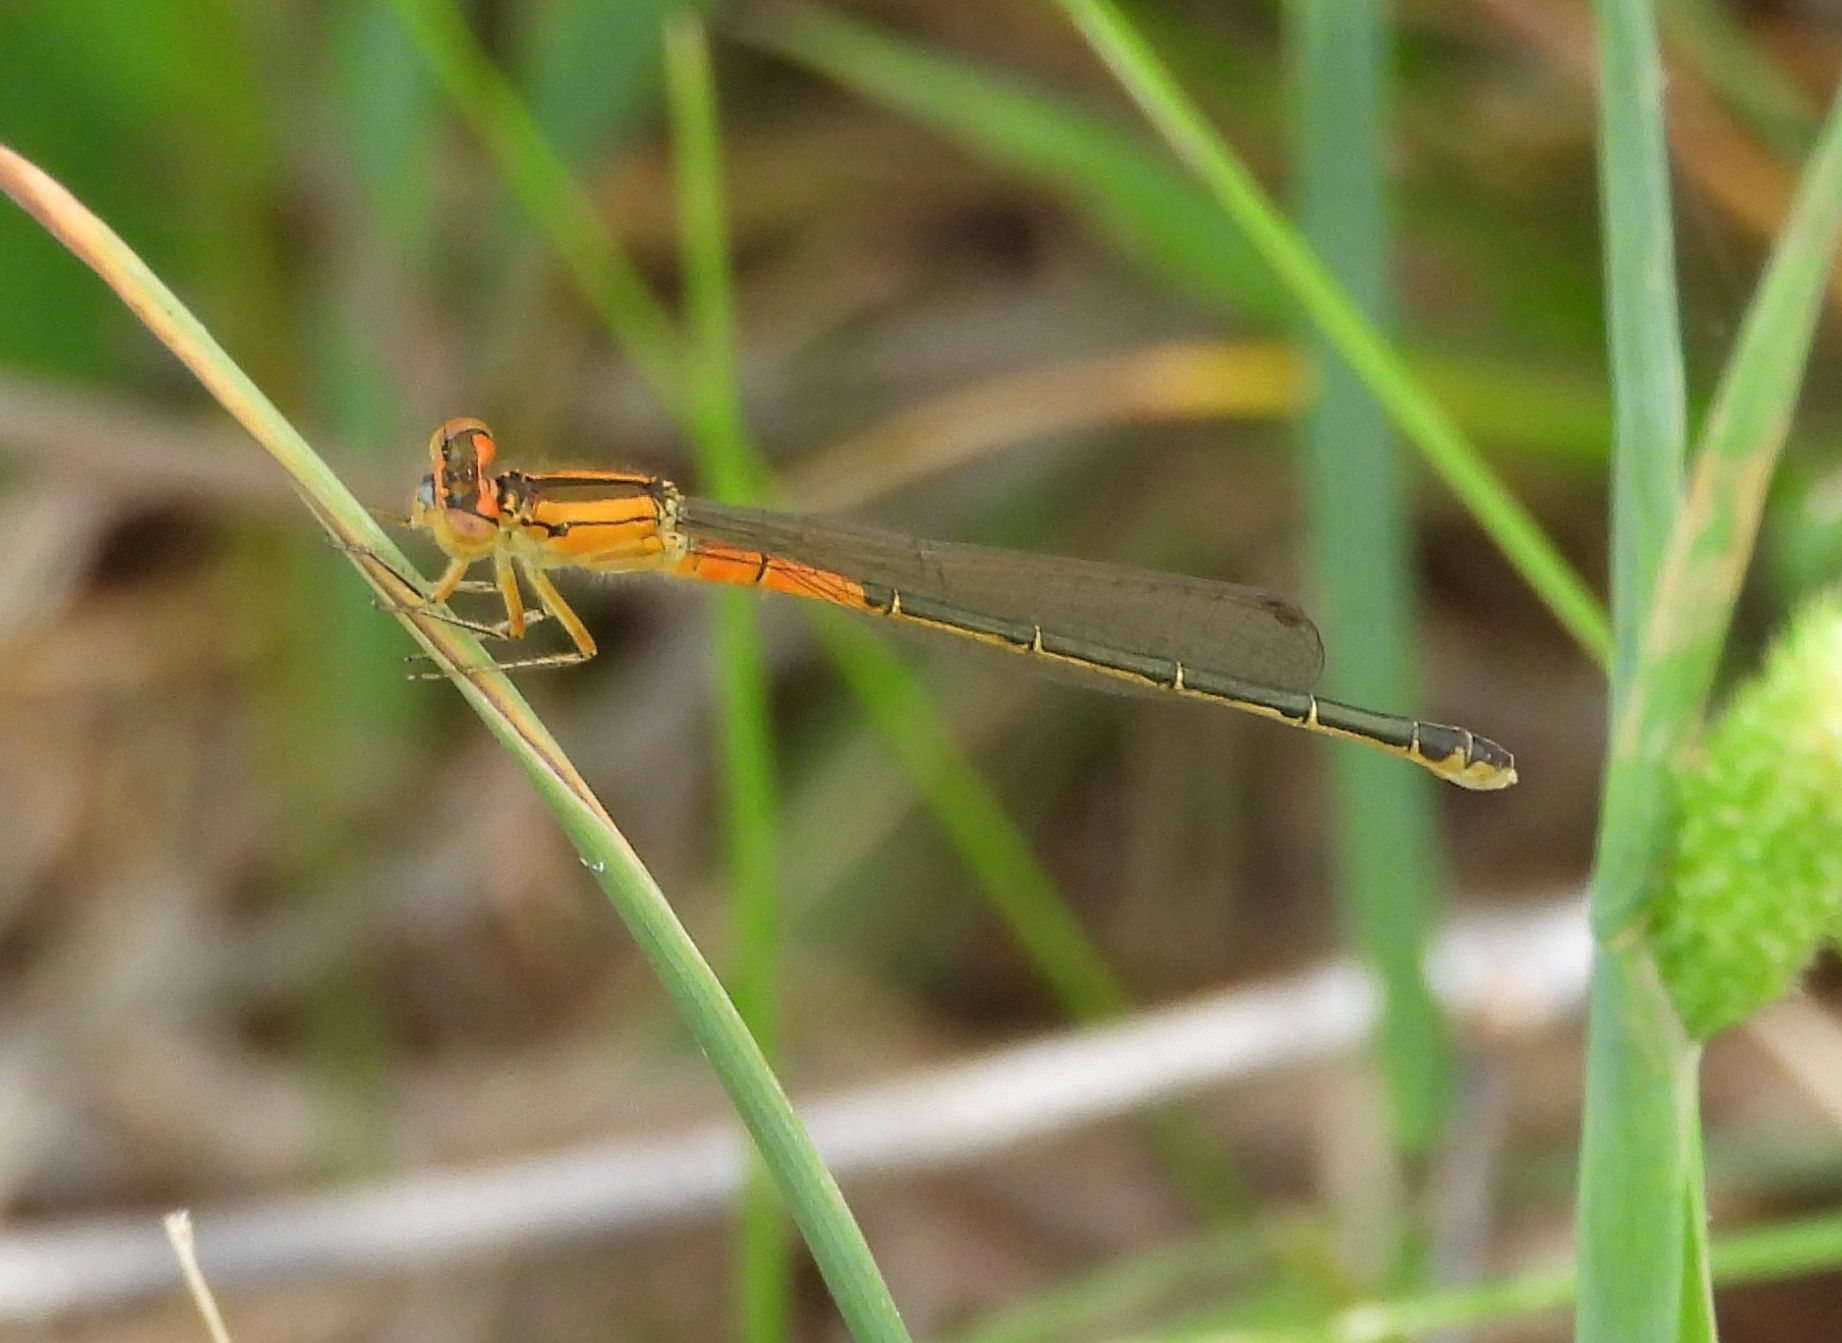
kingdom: Animalia
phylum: Arthropoda
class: Insecta
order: Odonata
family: Coenagrionidae
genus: Ischnura
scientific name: Ischnura verticalis
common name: Eastern forktail
